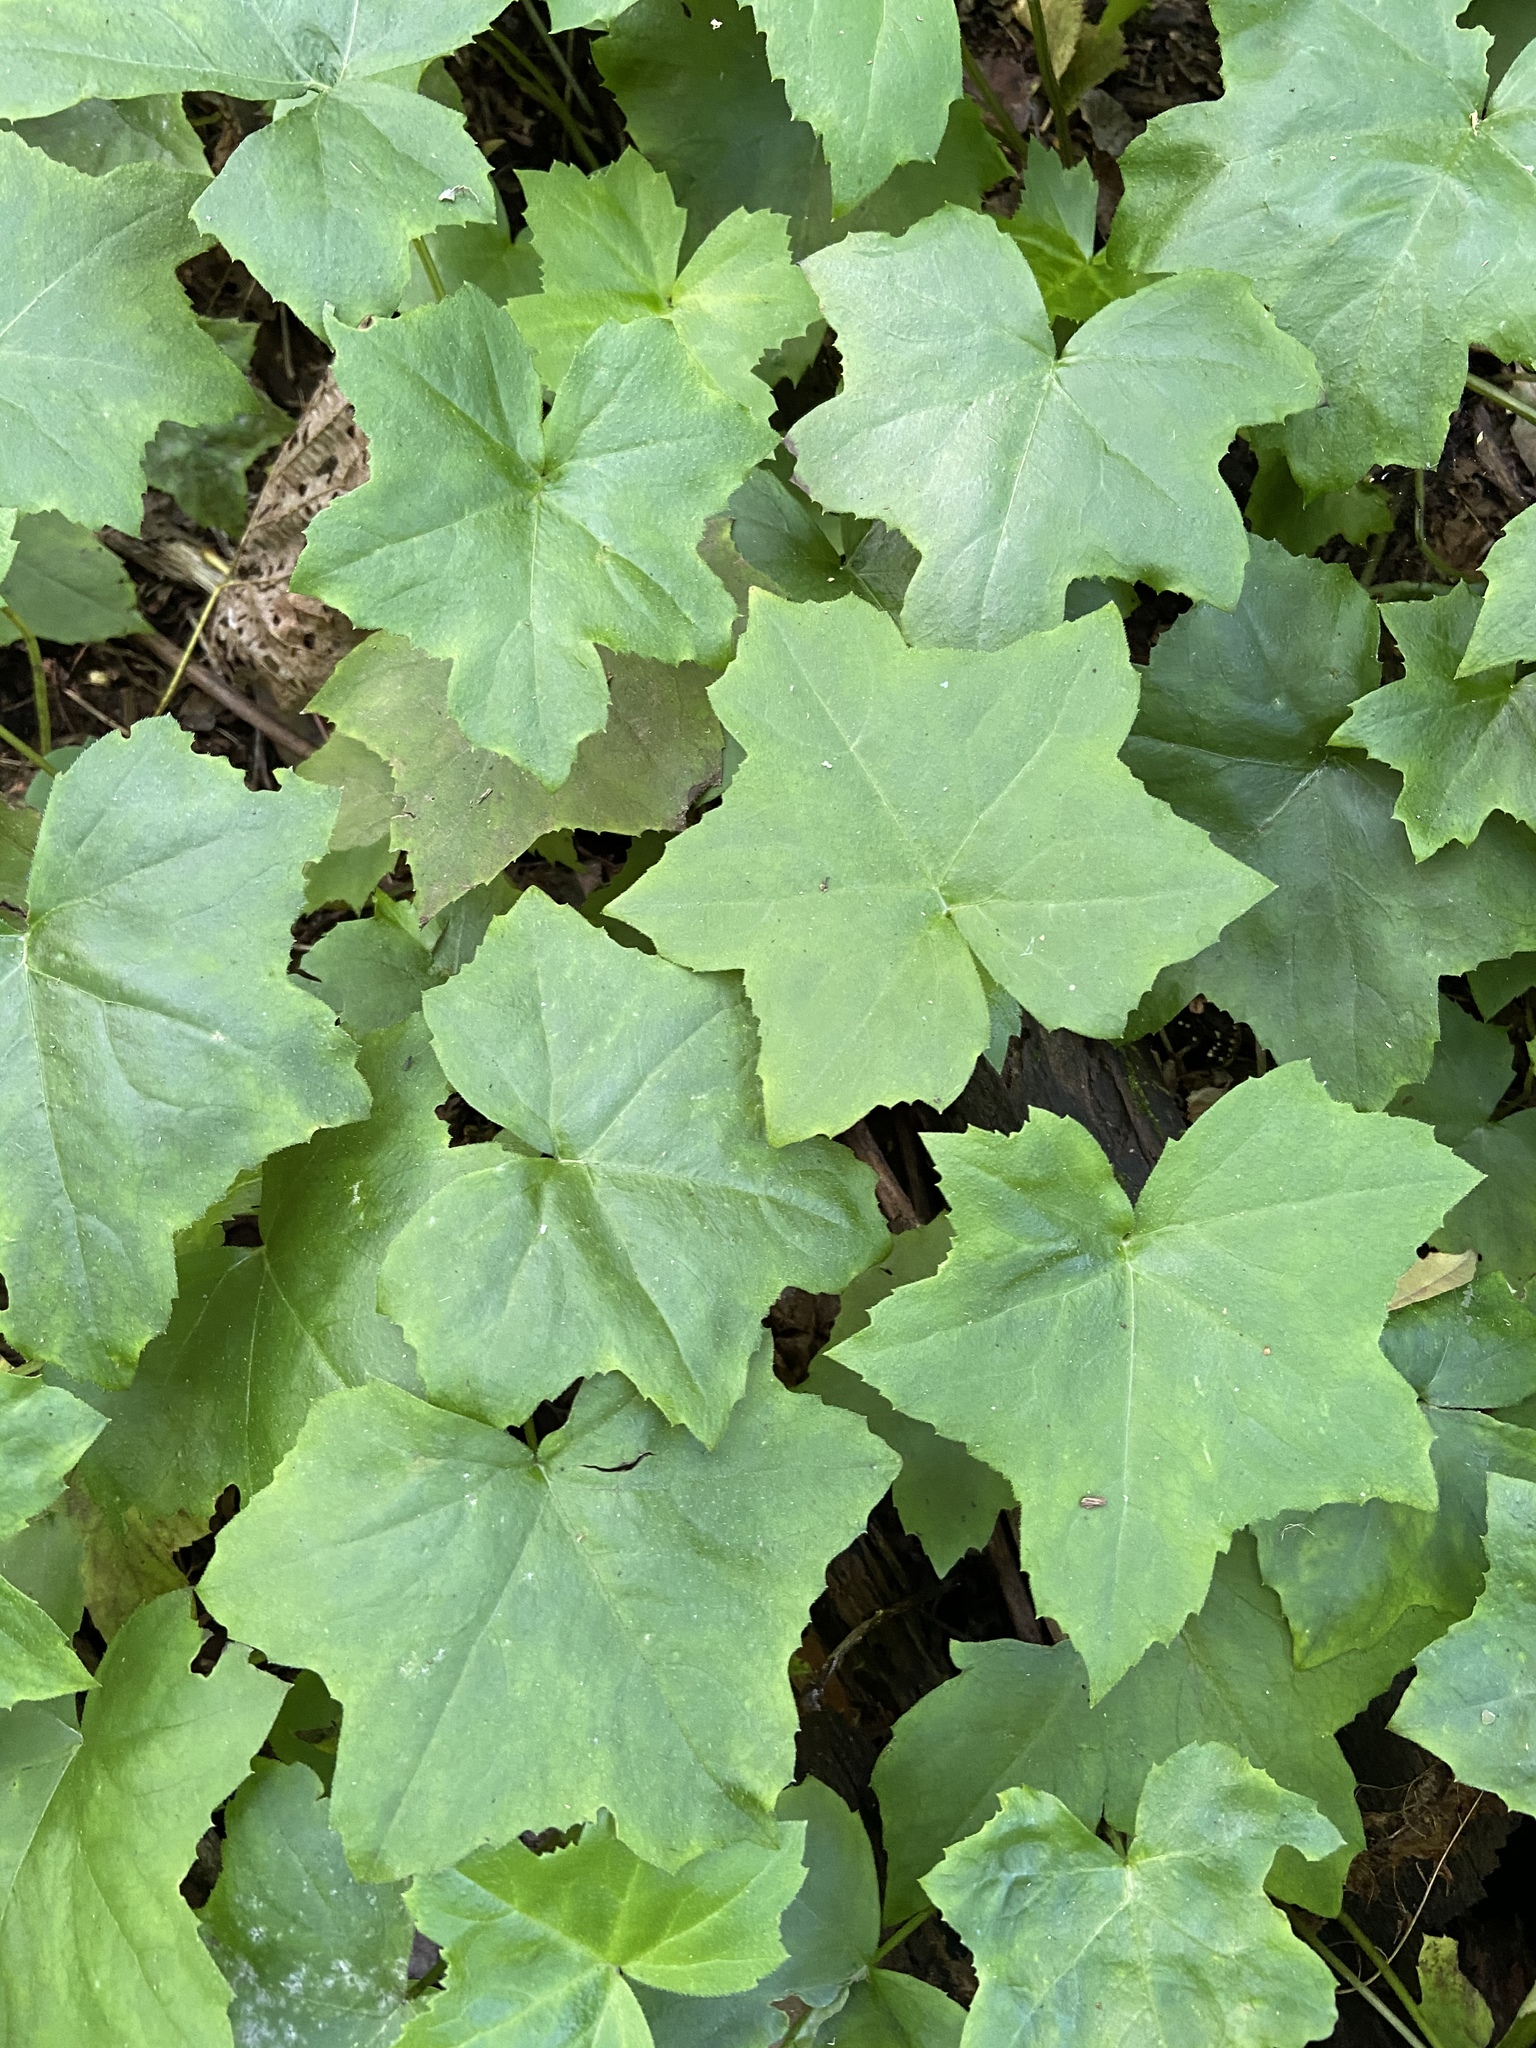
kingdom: Plantae
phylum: Tracheophyta
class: Magnoliopsida
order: Boraginales
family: Hydrophyllaceae
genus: Hydrophyllum
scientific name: Hydrophyllum canadense
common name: Canada waterleaf
